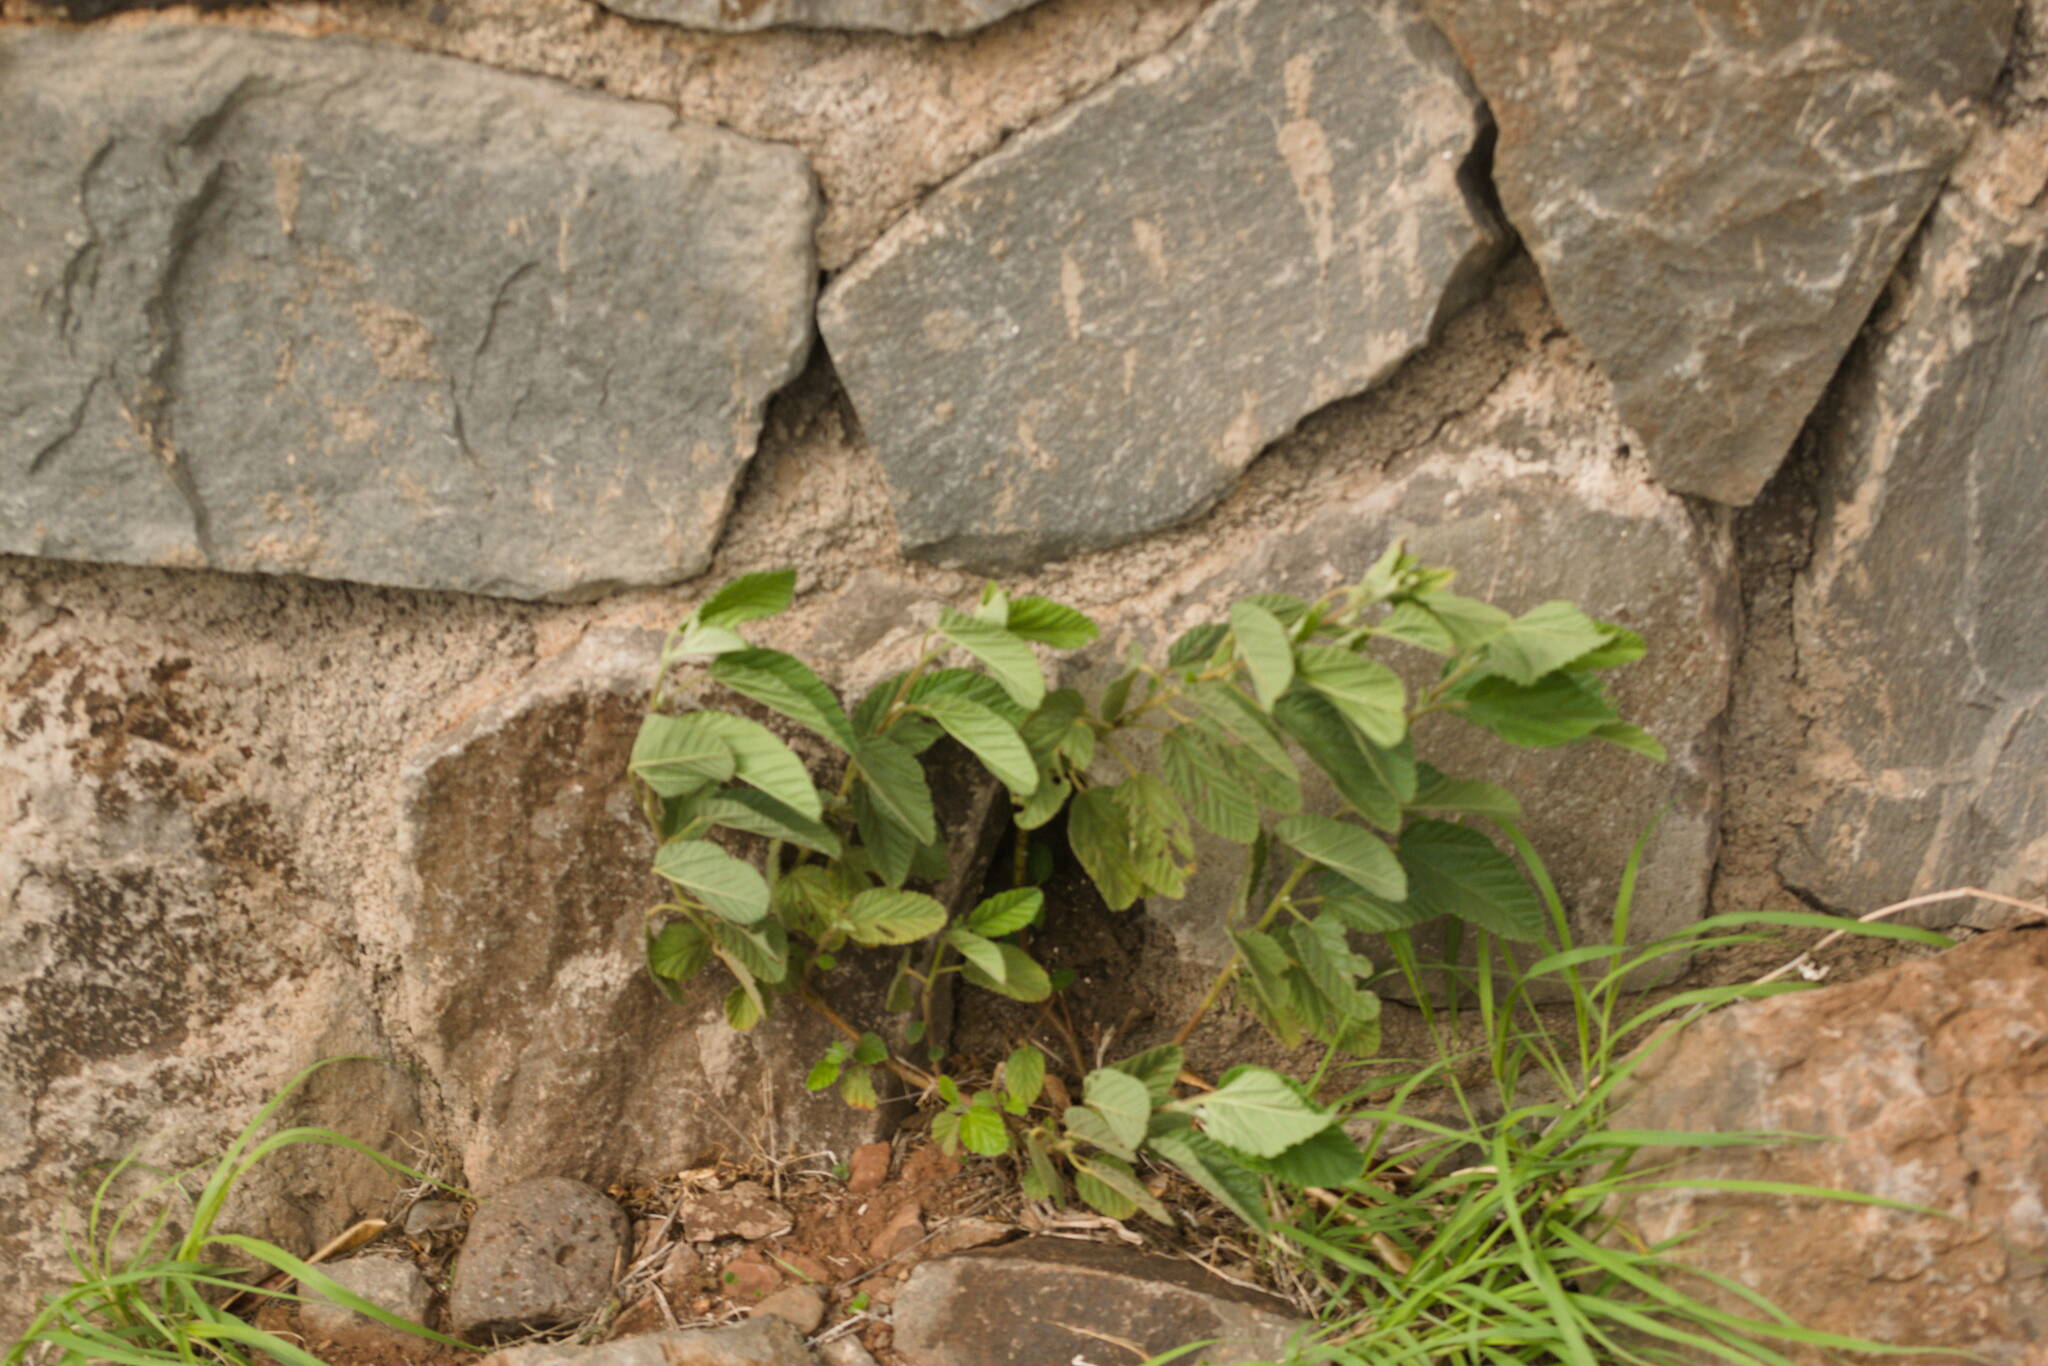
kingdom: Plantae
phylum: Tracheophyta
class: Magnoliopsida
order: Malvales
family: Malvaceae
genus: Waltheria
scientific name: Waltheria indica
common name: Leather-coat
